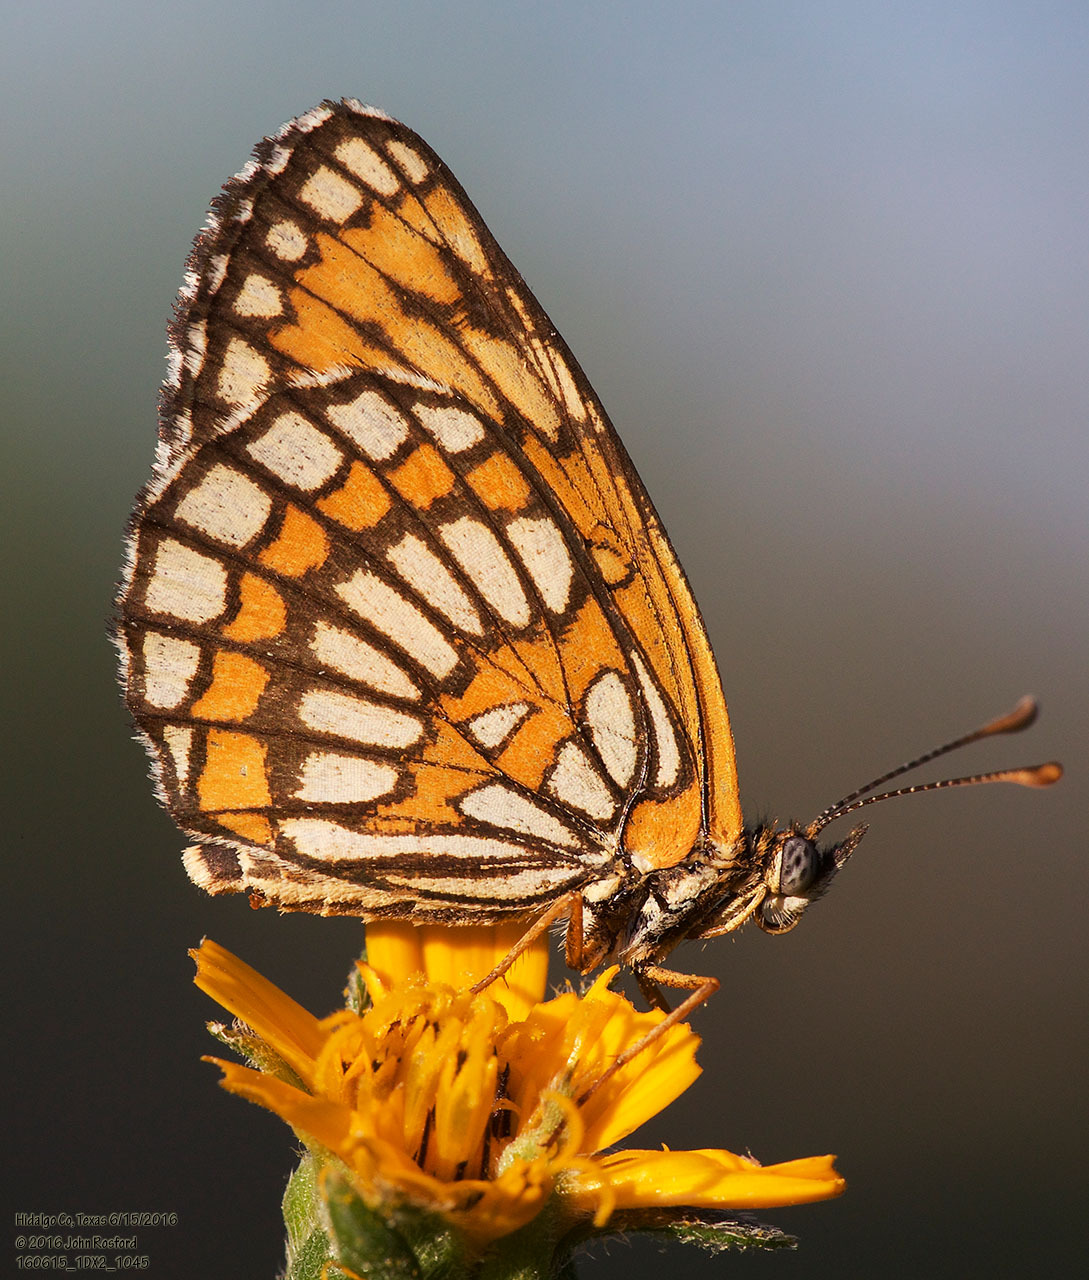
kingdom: Animalia
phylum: Arthropoda
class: Insecta
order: Lepidoptera
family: Nymphalidae
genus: Thessalia
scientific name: Thessalia theona
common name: Nymphalid moth
